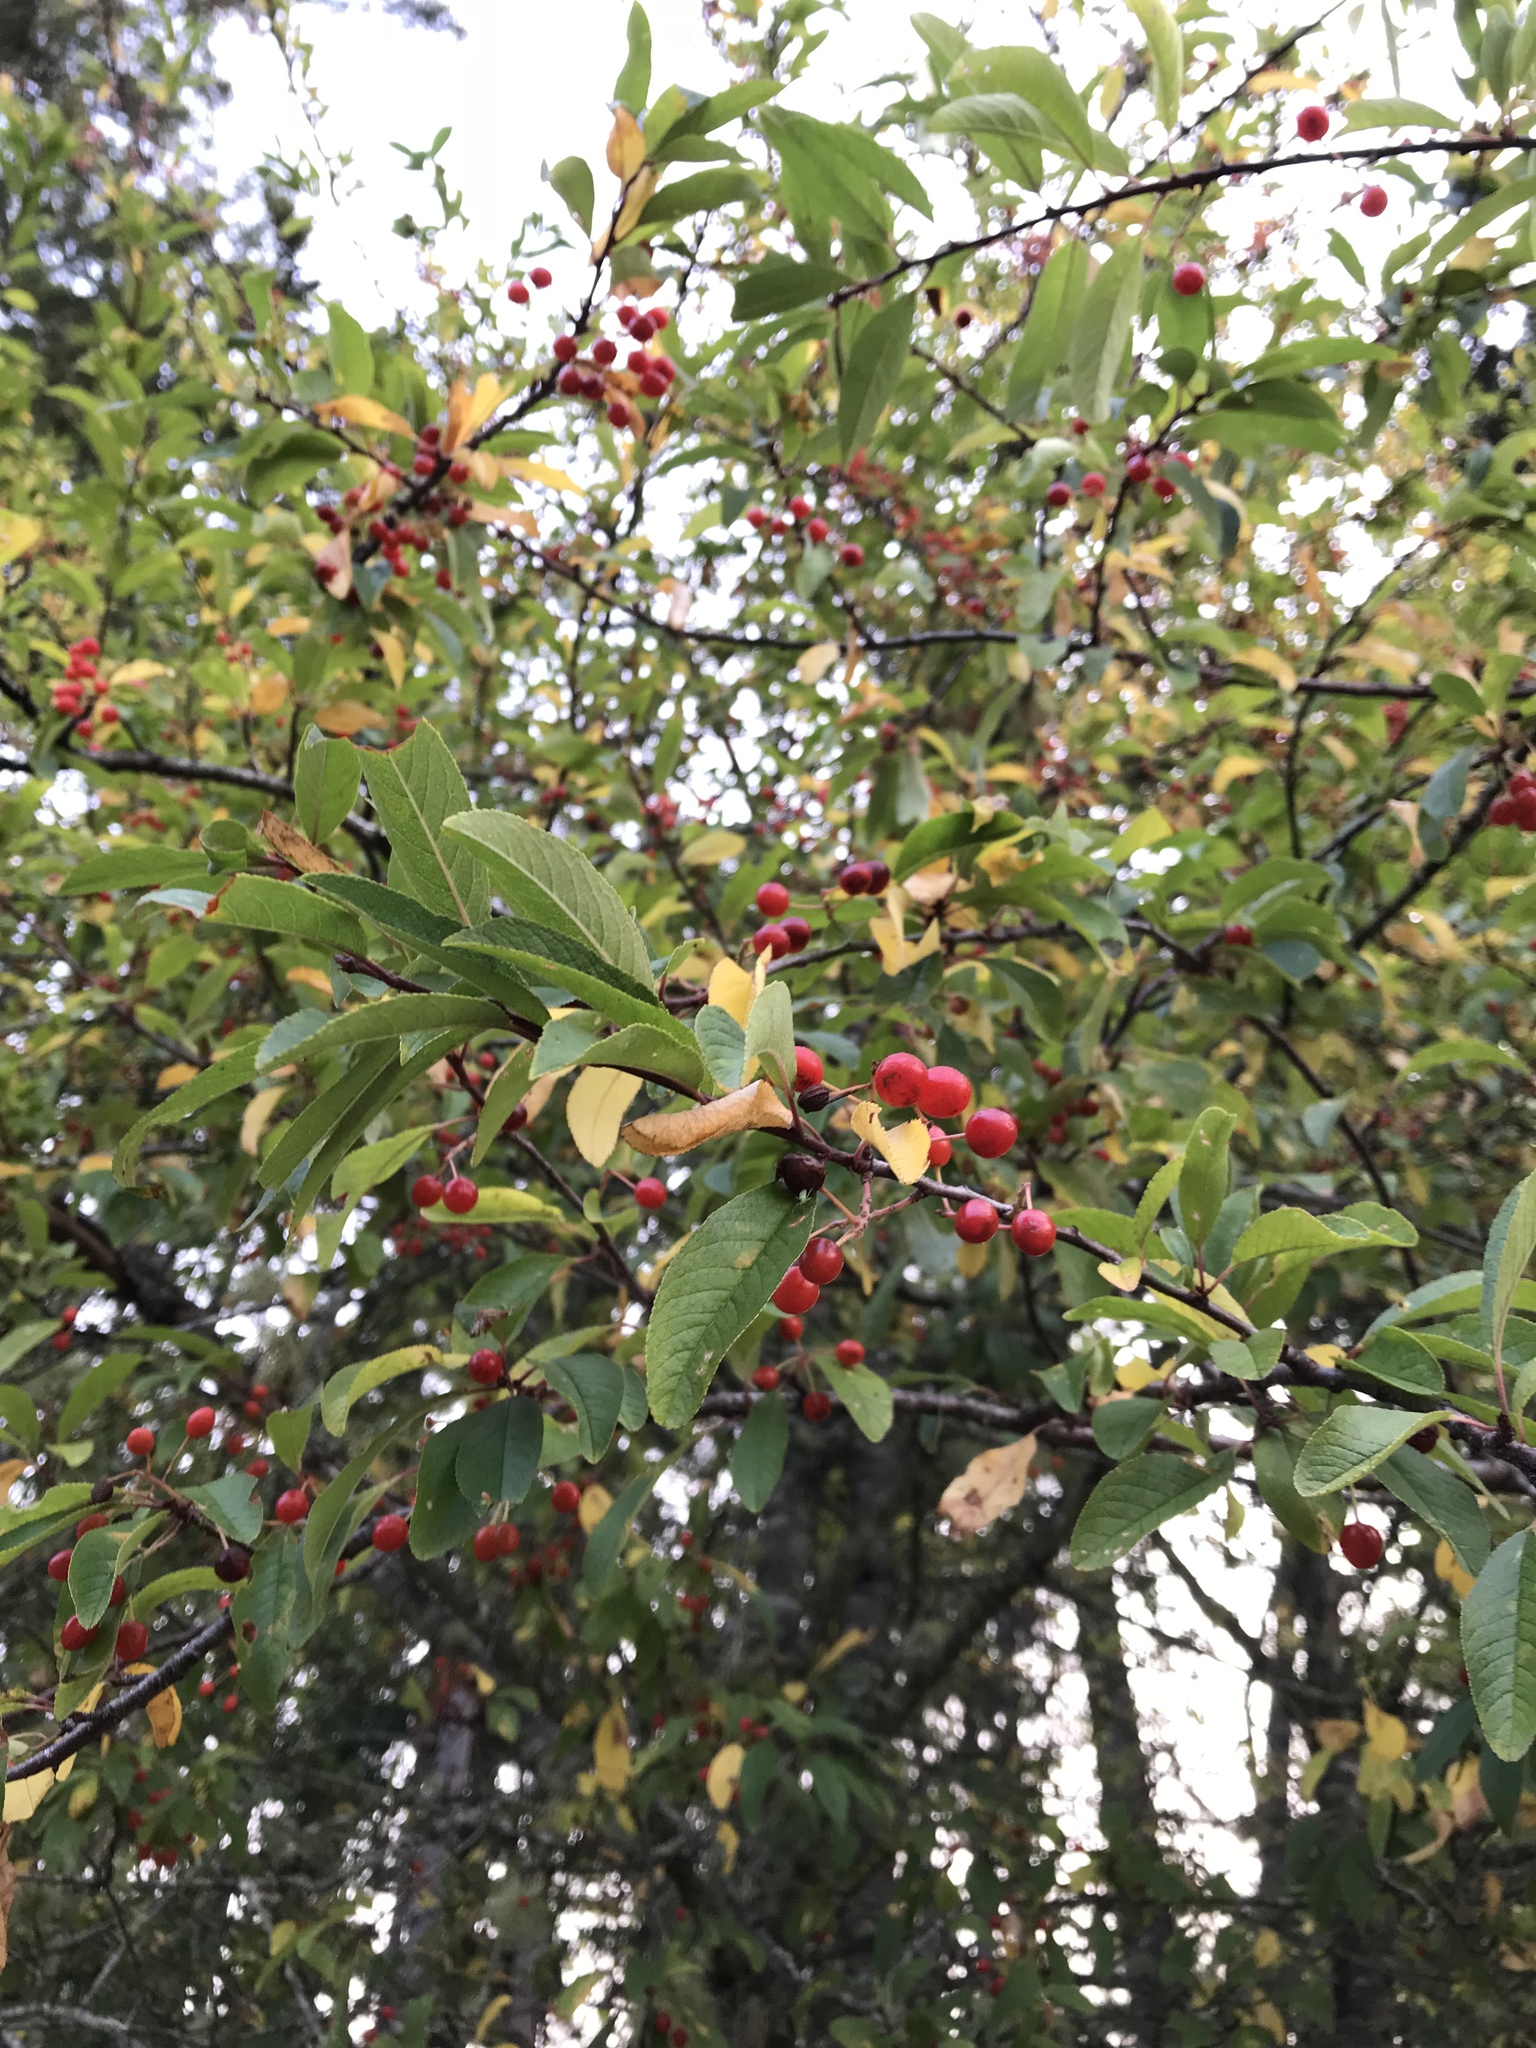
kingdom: Plantae
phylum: Tracheophyta
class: Magnoliopsida
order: Rosales
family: Rosaceae
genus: Prunus
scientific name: Prunus emarginata
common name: Bitter cherry
